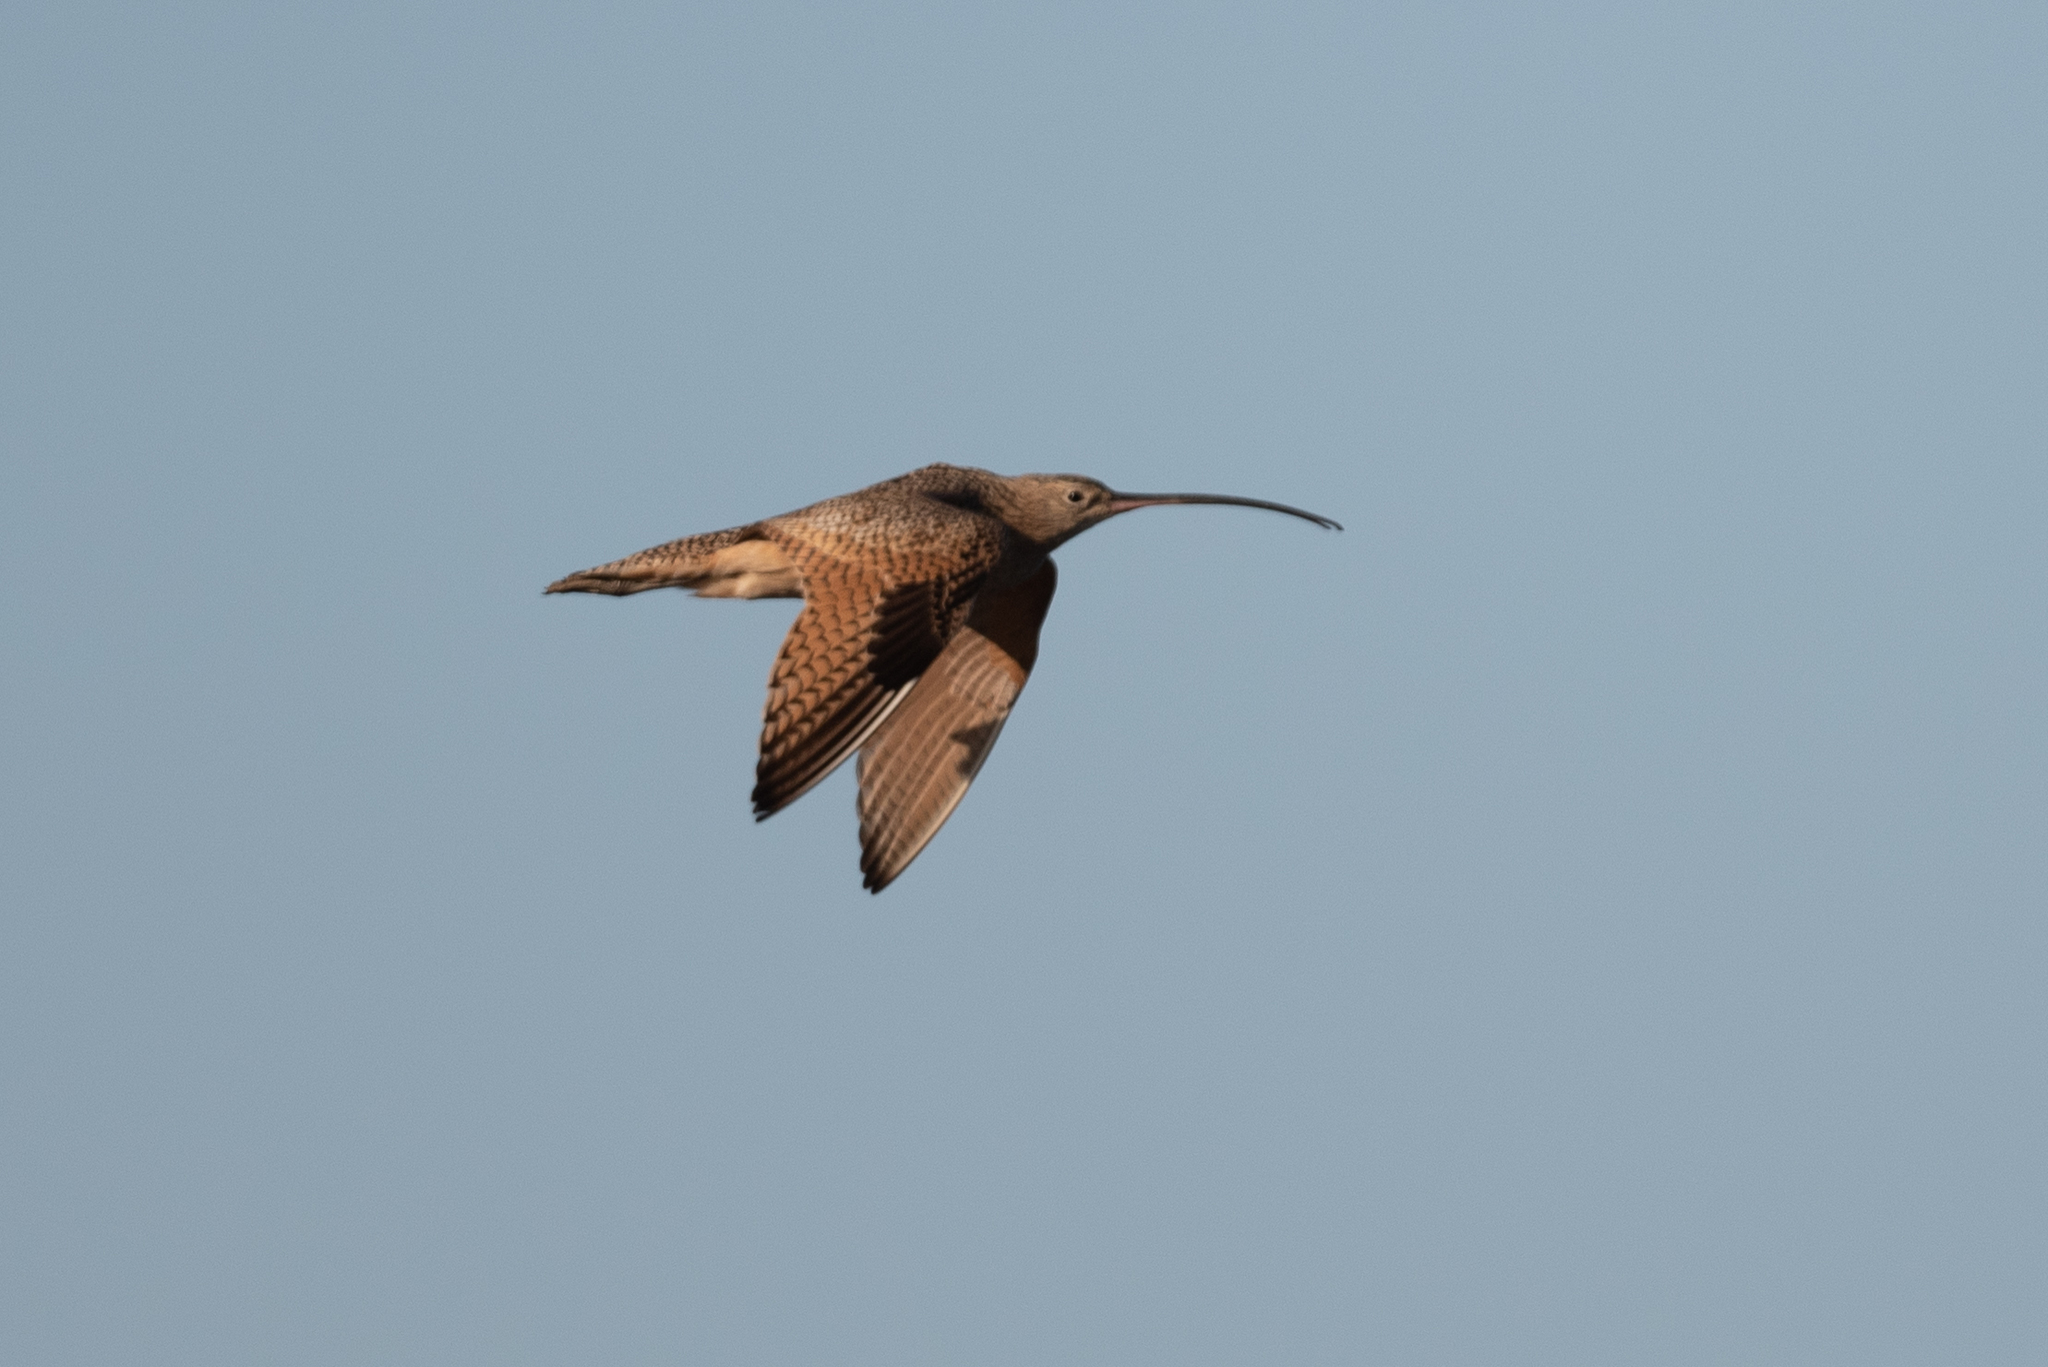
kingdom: Animalia
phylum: Chordata
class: Aves
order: Charadriiformes
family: Scolopacidae
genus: Numenius
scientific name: Numenius americanus
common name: Long-billed curlew
